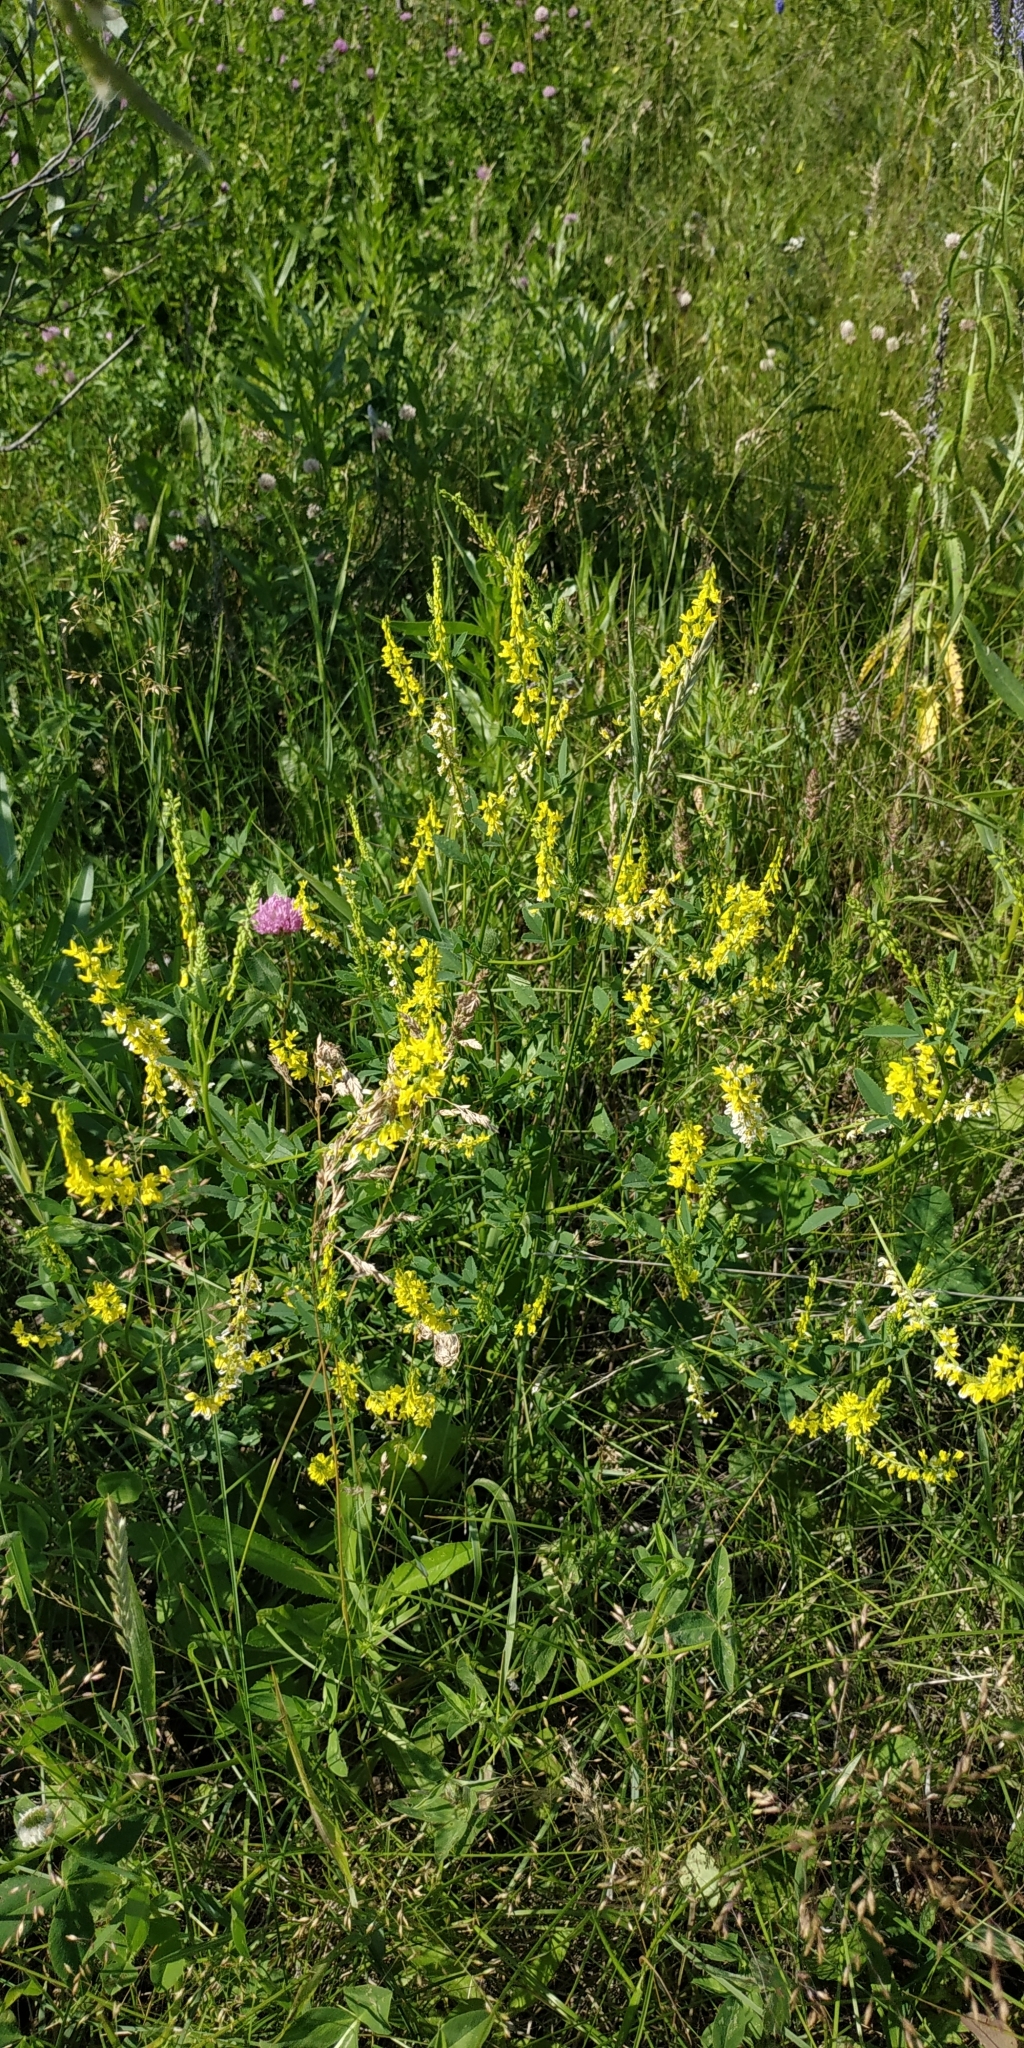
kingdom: Plantae
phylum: Tracheophyta
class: Magnoliopsida
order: Fabales
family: Fabaceae
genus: Melilotus
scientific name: Melilotus officinalis
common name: Sweetclover
